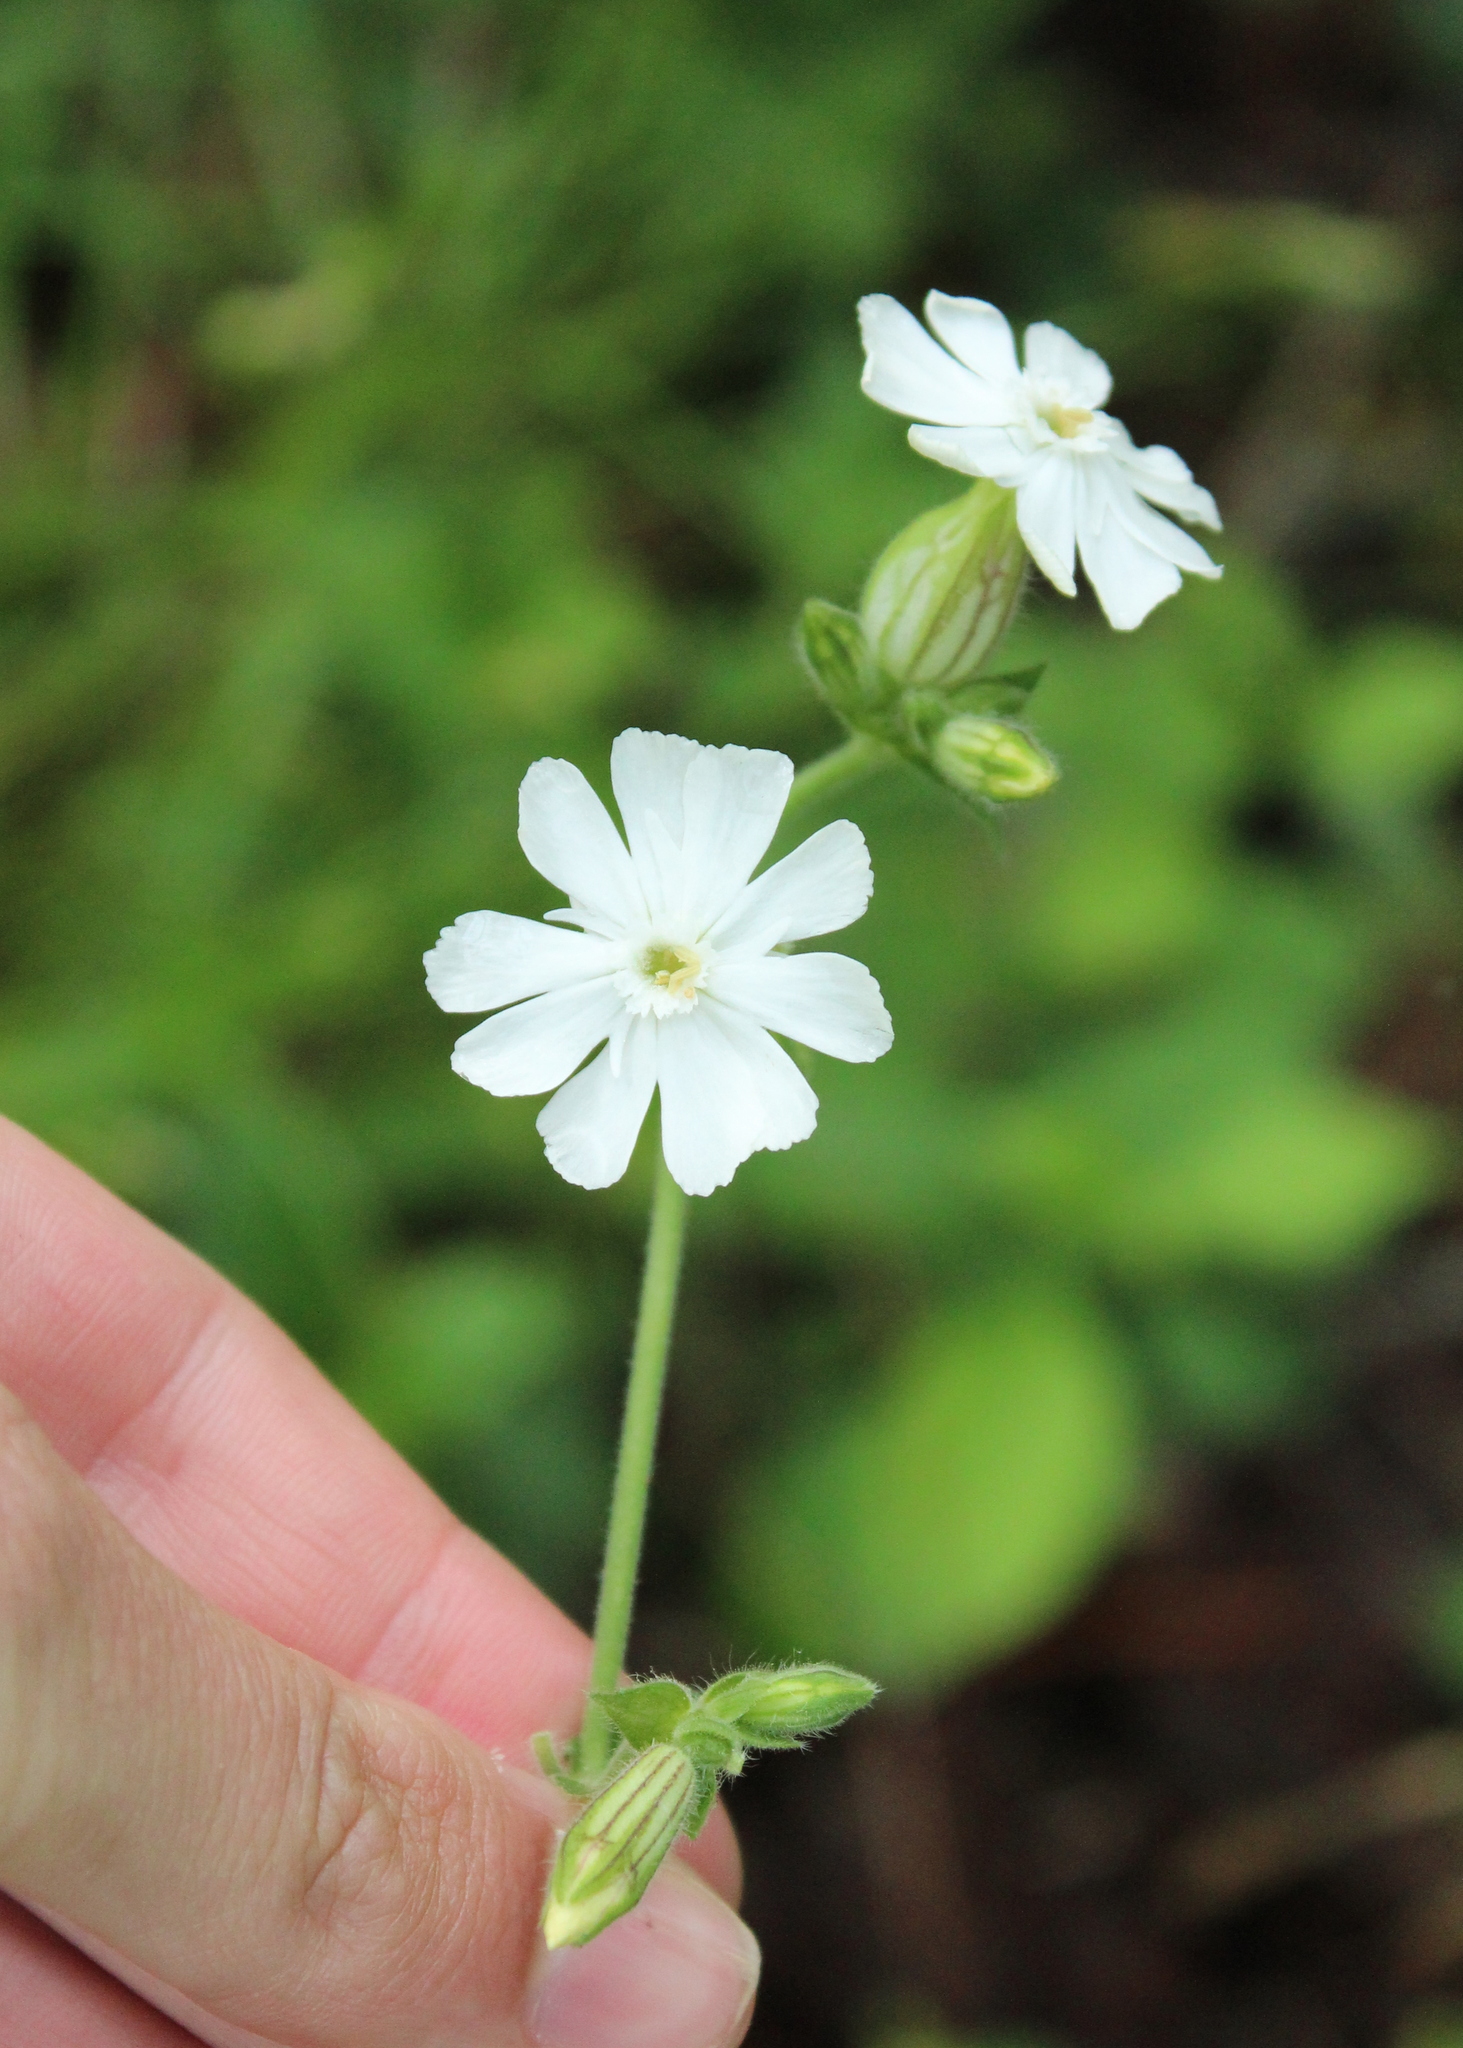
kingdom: Plantae
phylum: Tracheophyta
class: Magnoliopsida
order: Caryophyllales
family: Caryophyllaceae
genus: Silene
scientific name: Silene latifolia
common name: White campion
